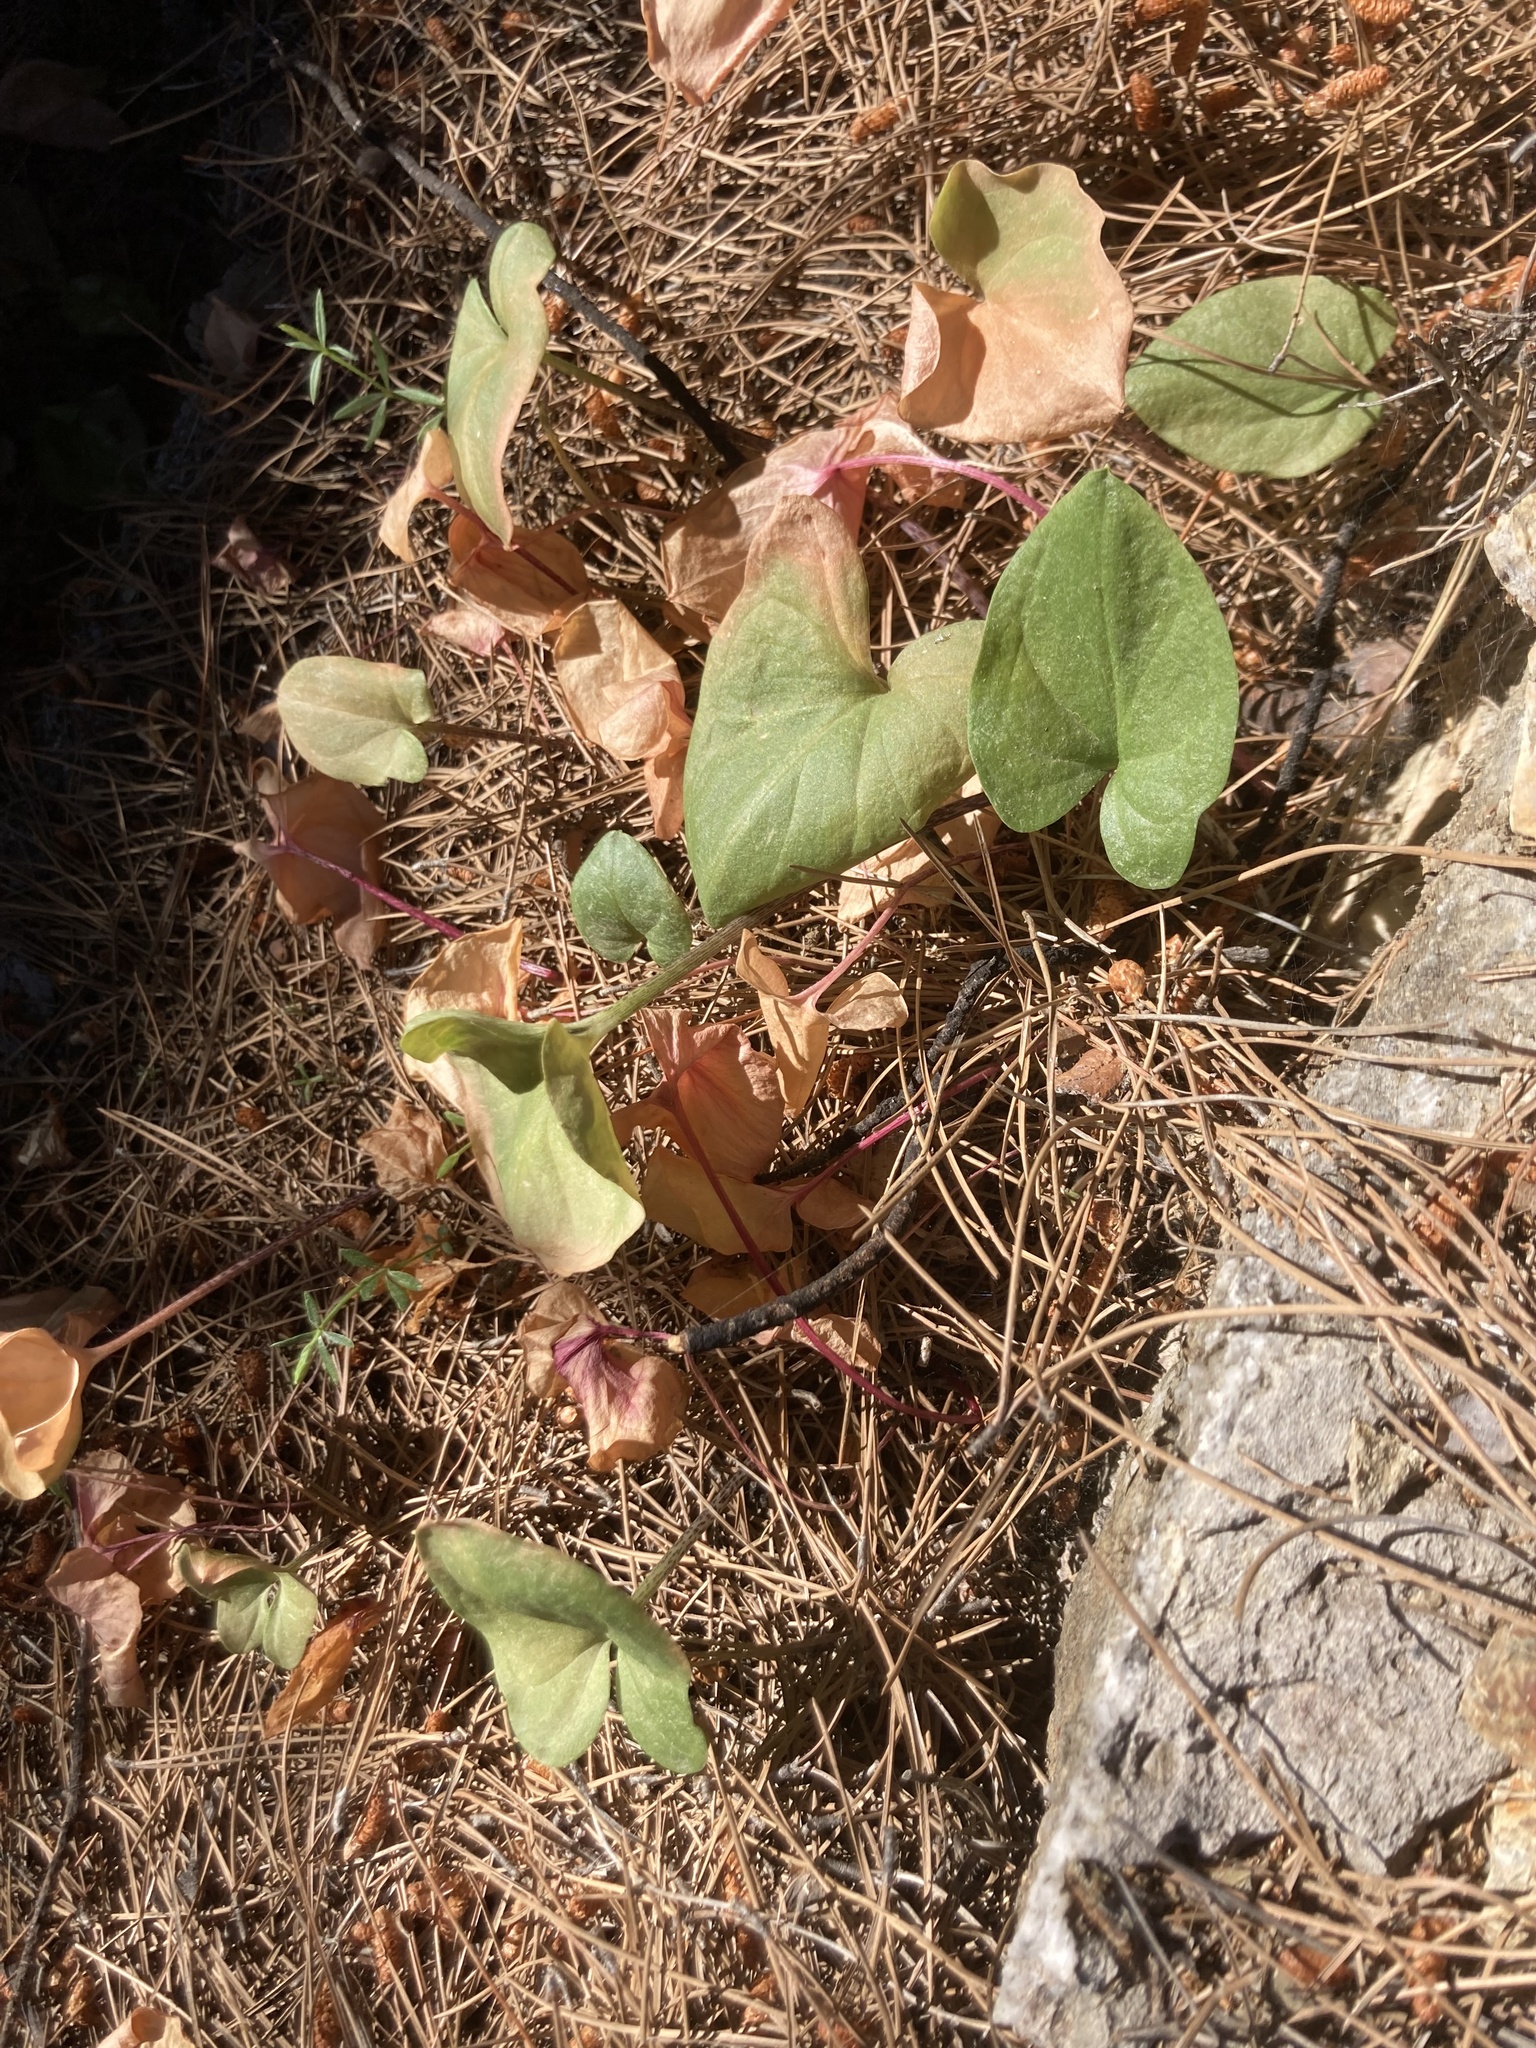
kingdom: Plantae
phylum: Tracheophyta
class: Liliopsida
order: Alismatales
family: Araceae
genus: Arisarum
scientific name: Arisarum vulgare
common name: Common arisarum
